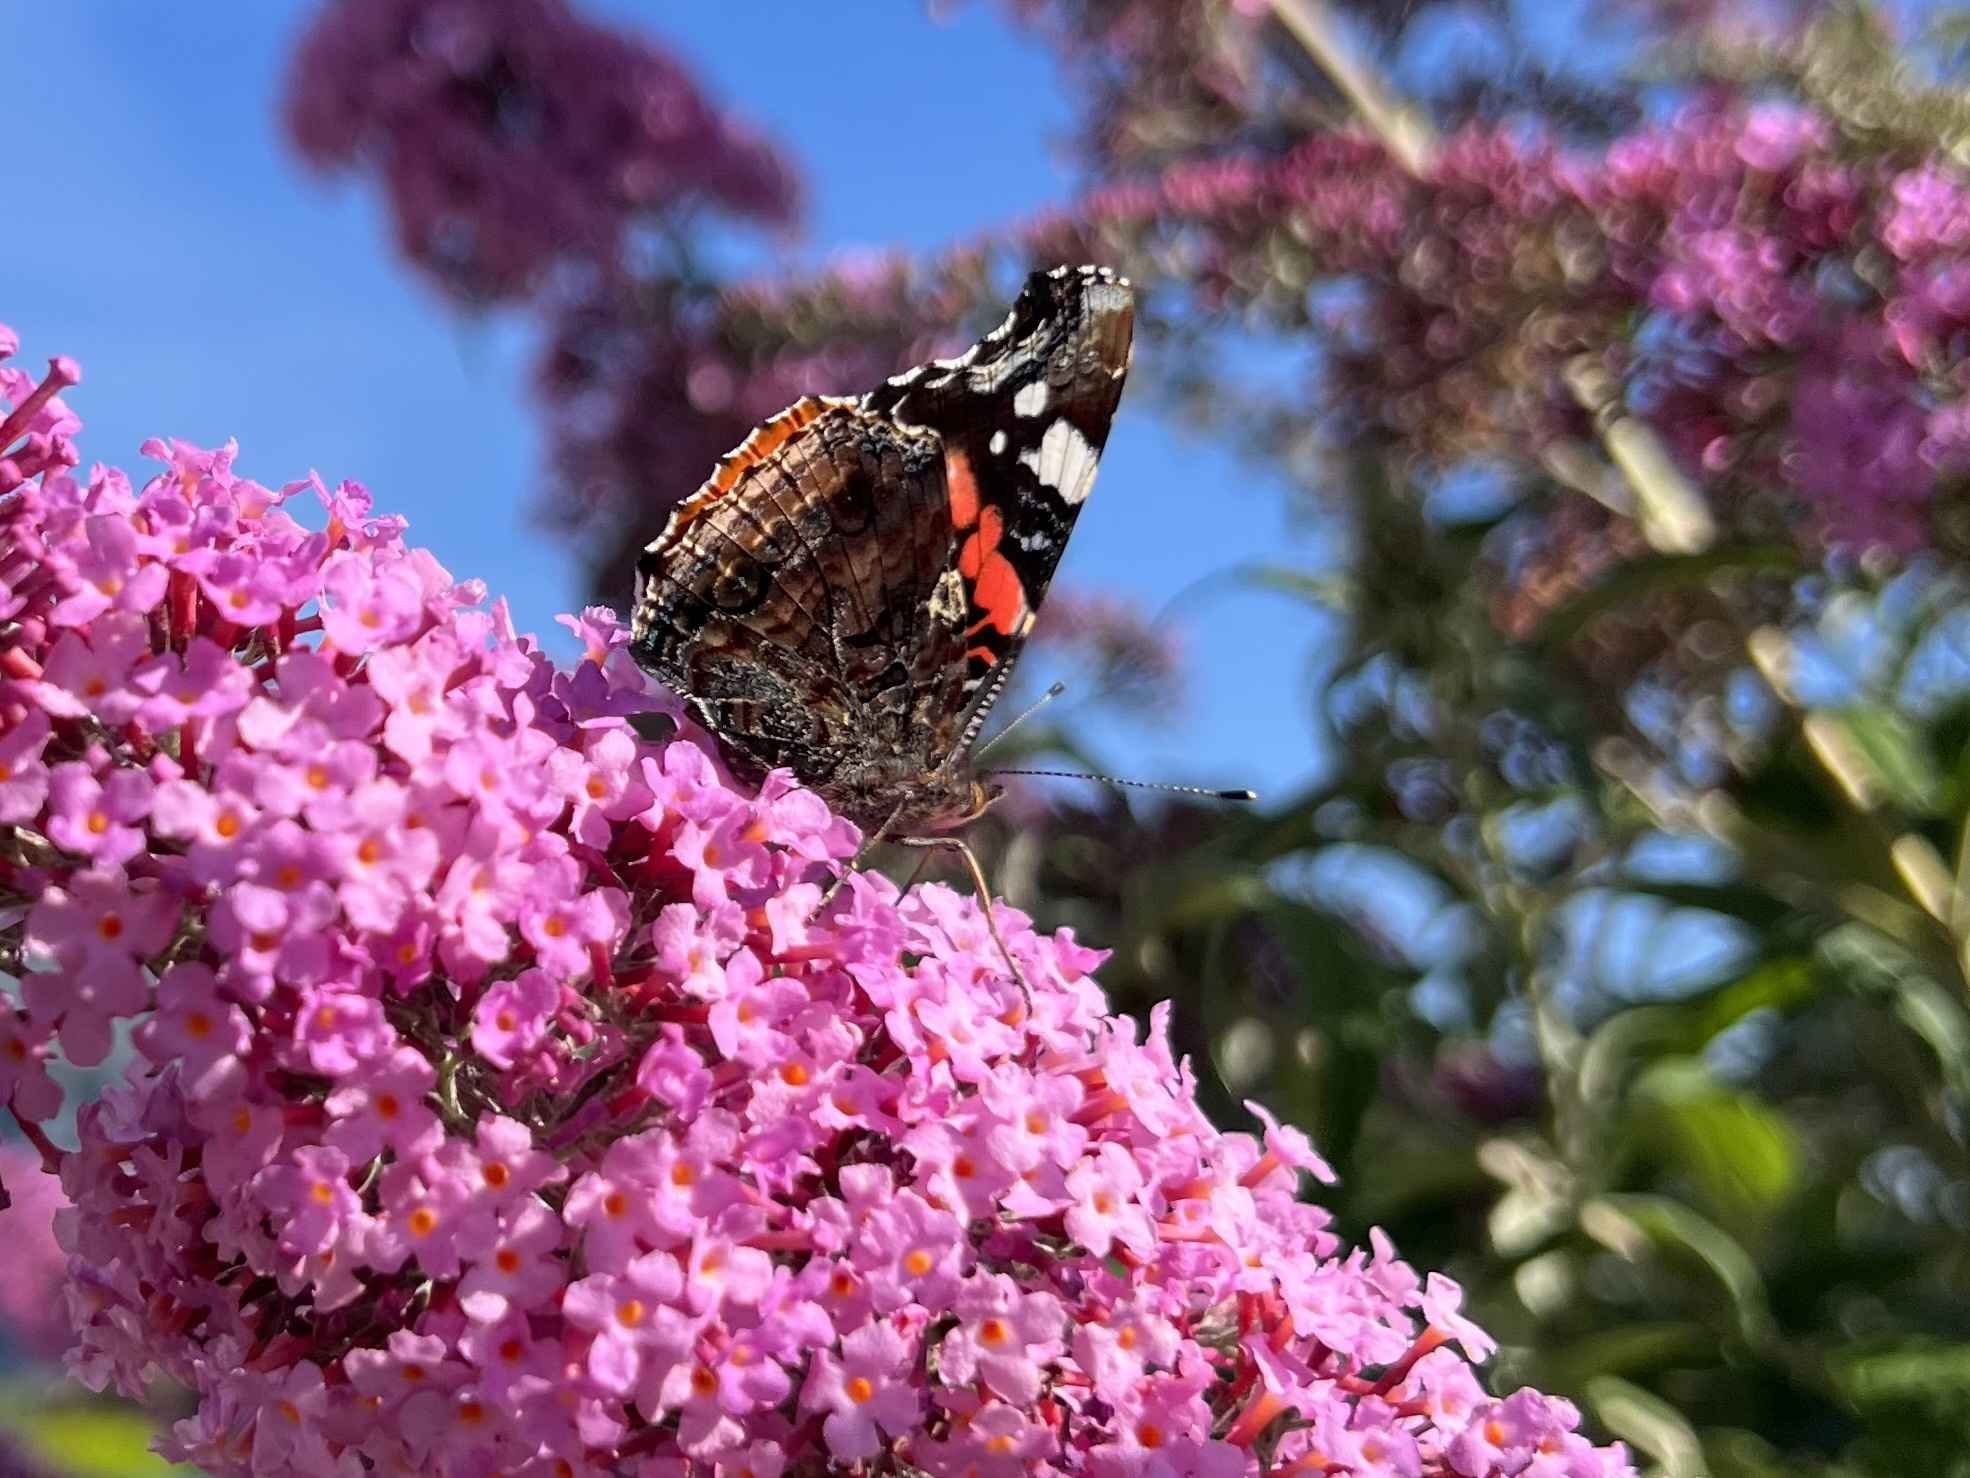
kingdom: Animalia
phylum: Arthropoda
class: Insecta
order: Lepidoptera
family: Nymphalidae
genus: Vanessa
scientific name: Vanessa atalanta
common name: Red admiral
